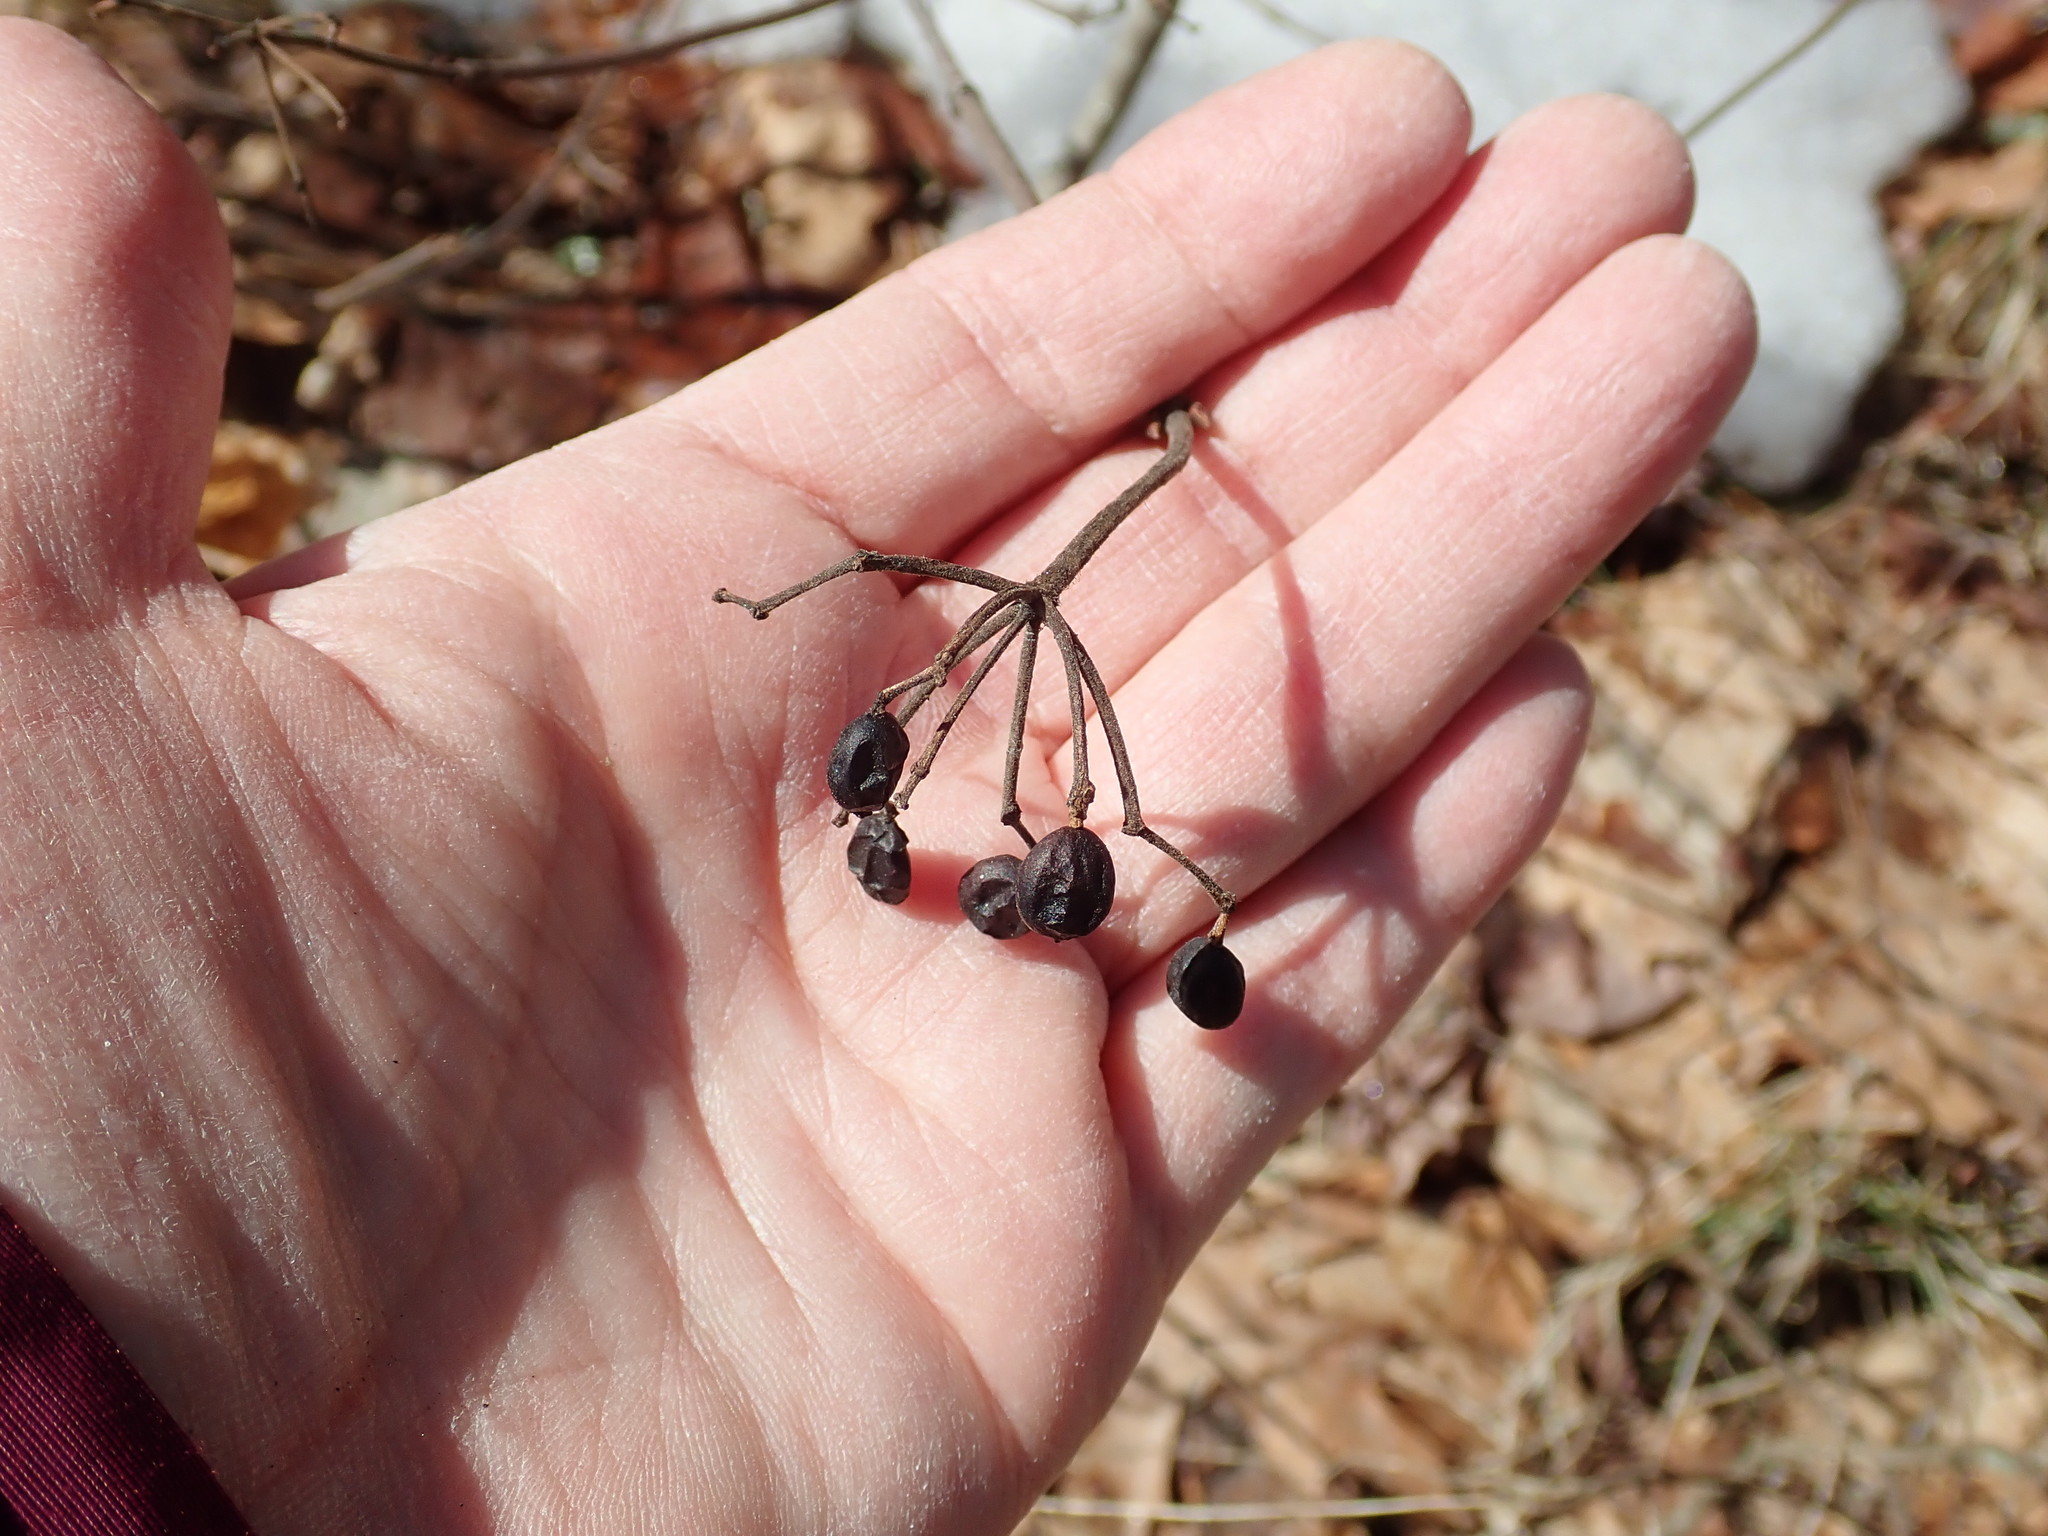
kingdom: Plantae
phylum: Tracheophyta
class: Magnoliopsida
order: Dipsacales
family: Viburnaceae
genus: Viburnum
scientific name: Viburnum acerifolium
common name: Dockmackie
